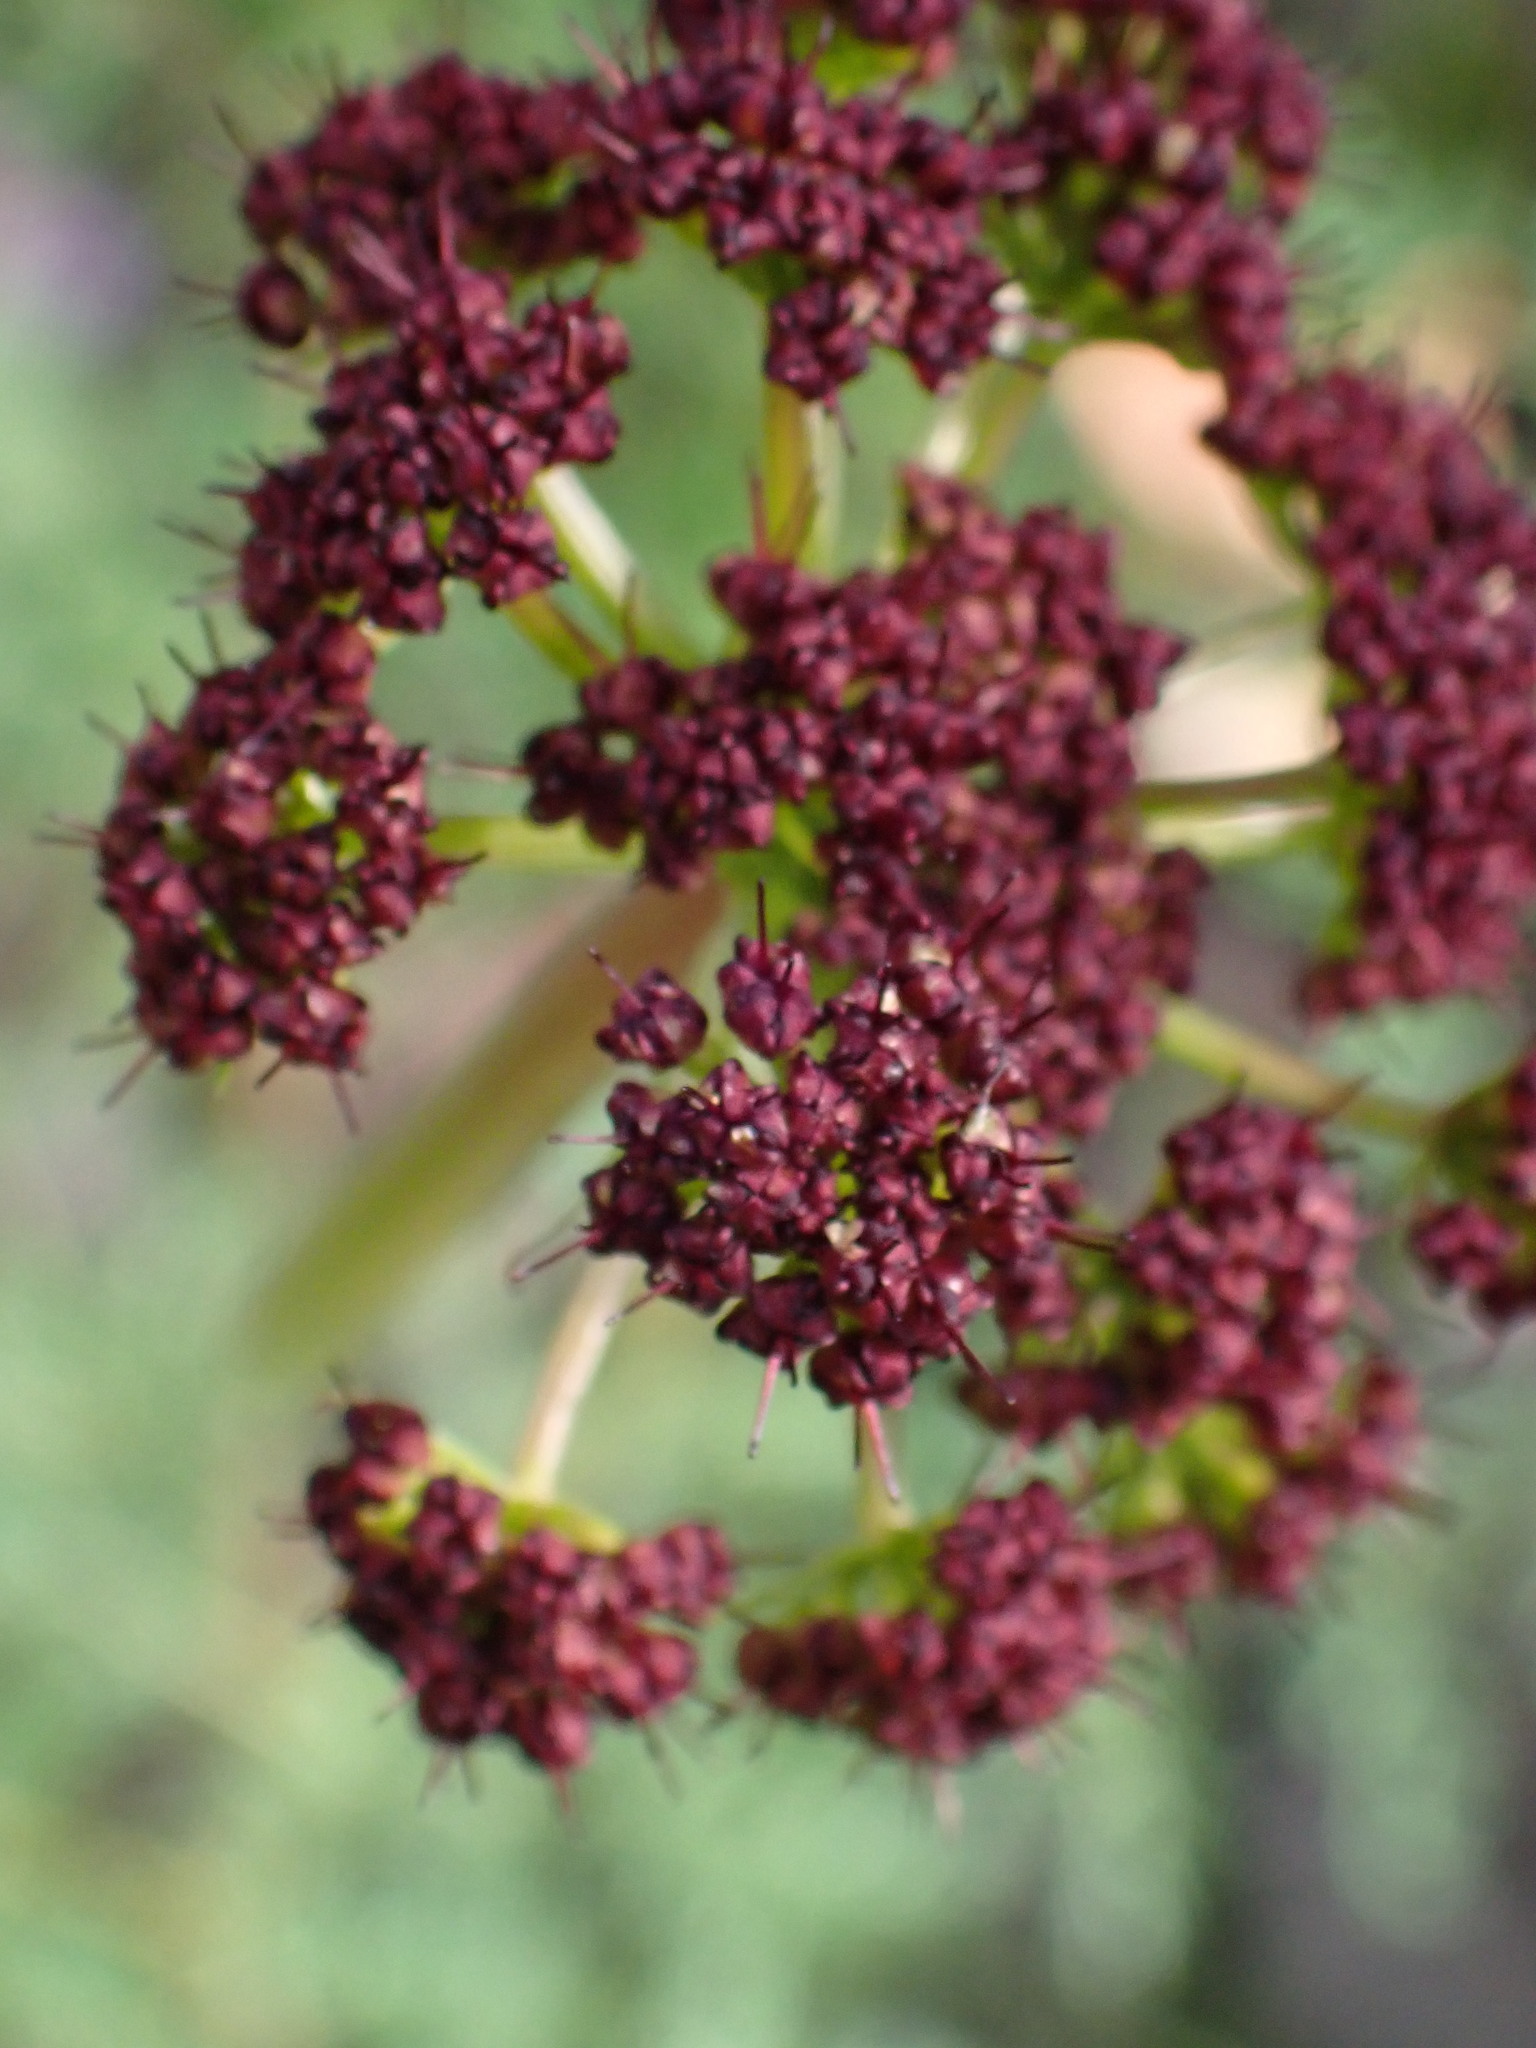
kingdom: Plantae
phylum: Tracheophyta
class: Magnoliopsida
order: Apiales
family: Apiaceae
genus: Lomatium
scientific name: Lomatium multifidum
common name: Carrot-leaved biscuitroot
